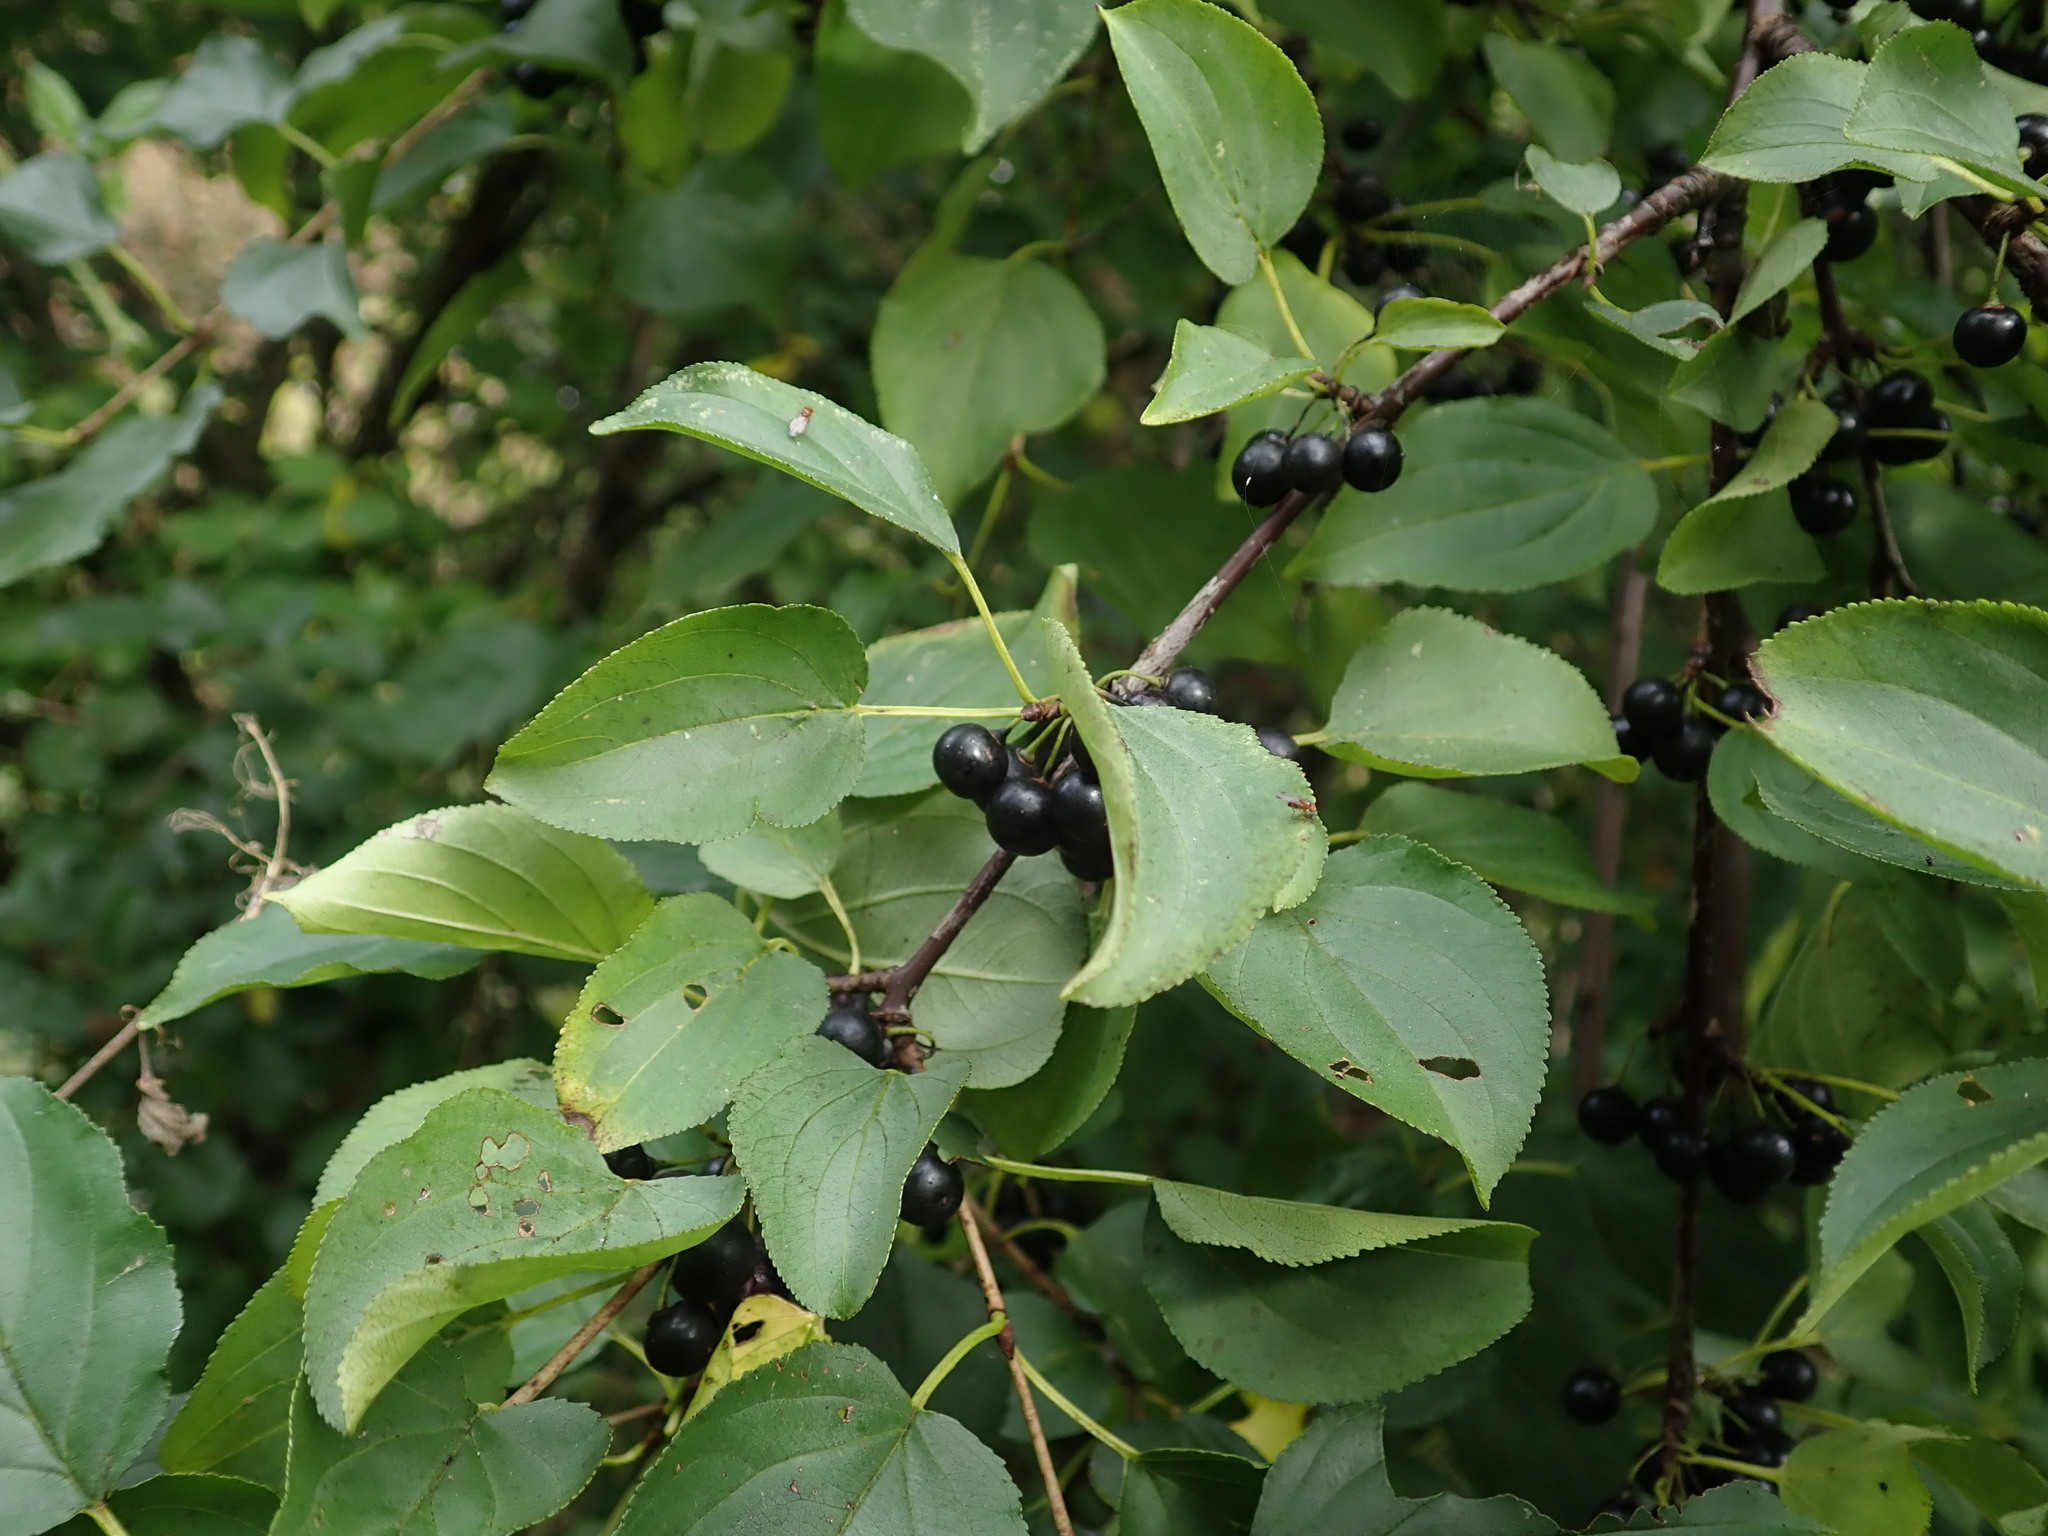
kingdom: Plantae
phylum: Tracheophyta
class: Magnoliopsida
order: Rosales
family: Rhamnaceae
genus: Rhamnus
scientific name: Rhamnus cathartica
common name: Common buckthorn
